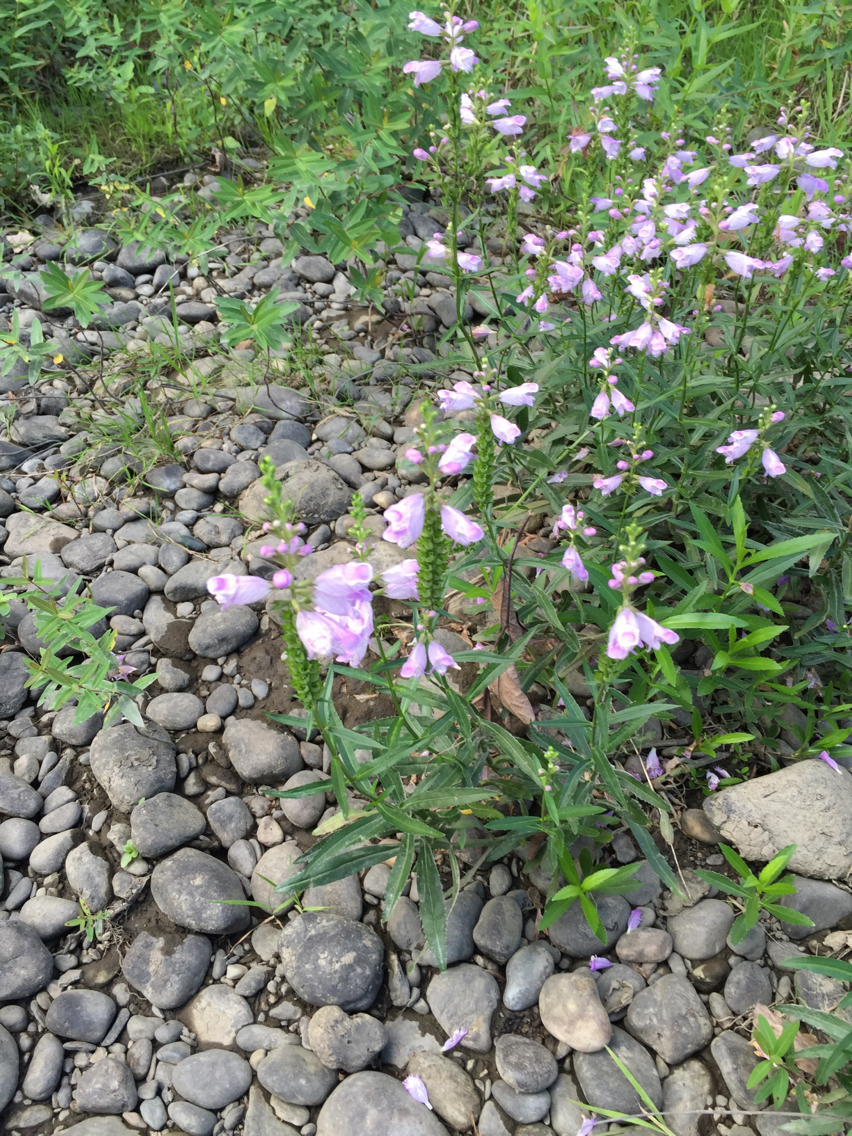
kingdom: Plantae
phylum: Tracheophyta
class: Magnoliopsida
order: Lamiales
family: Lamiaceae
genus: Physostegia
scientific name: Physostegia virginiana
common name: Obedient-plant
